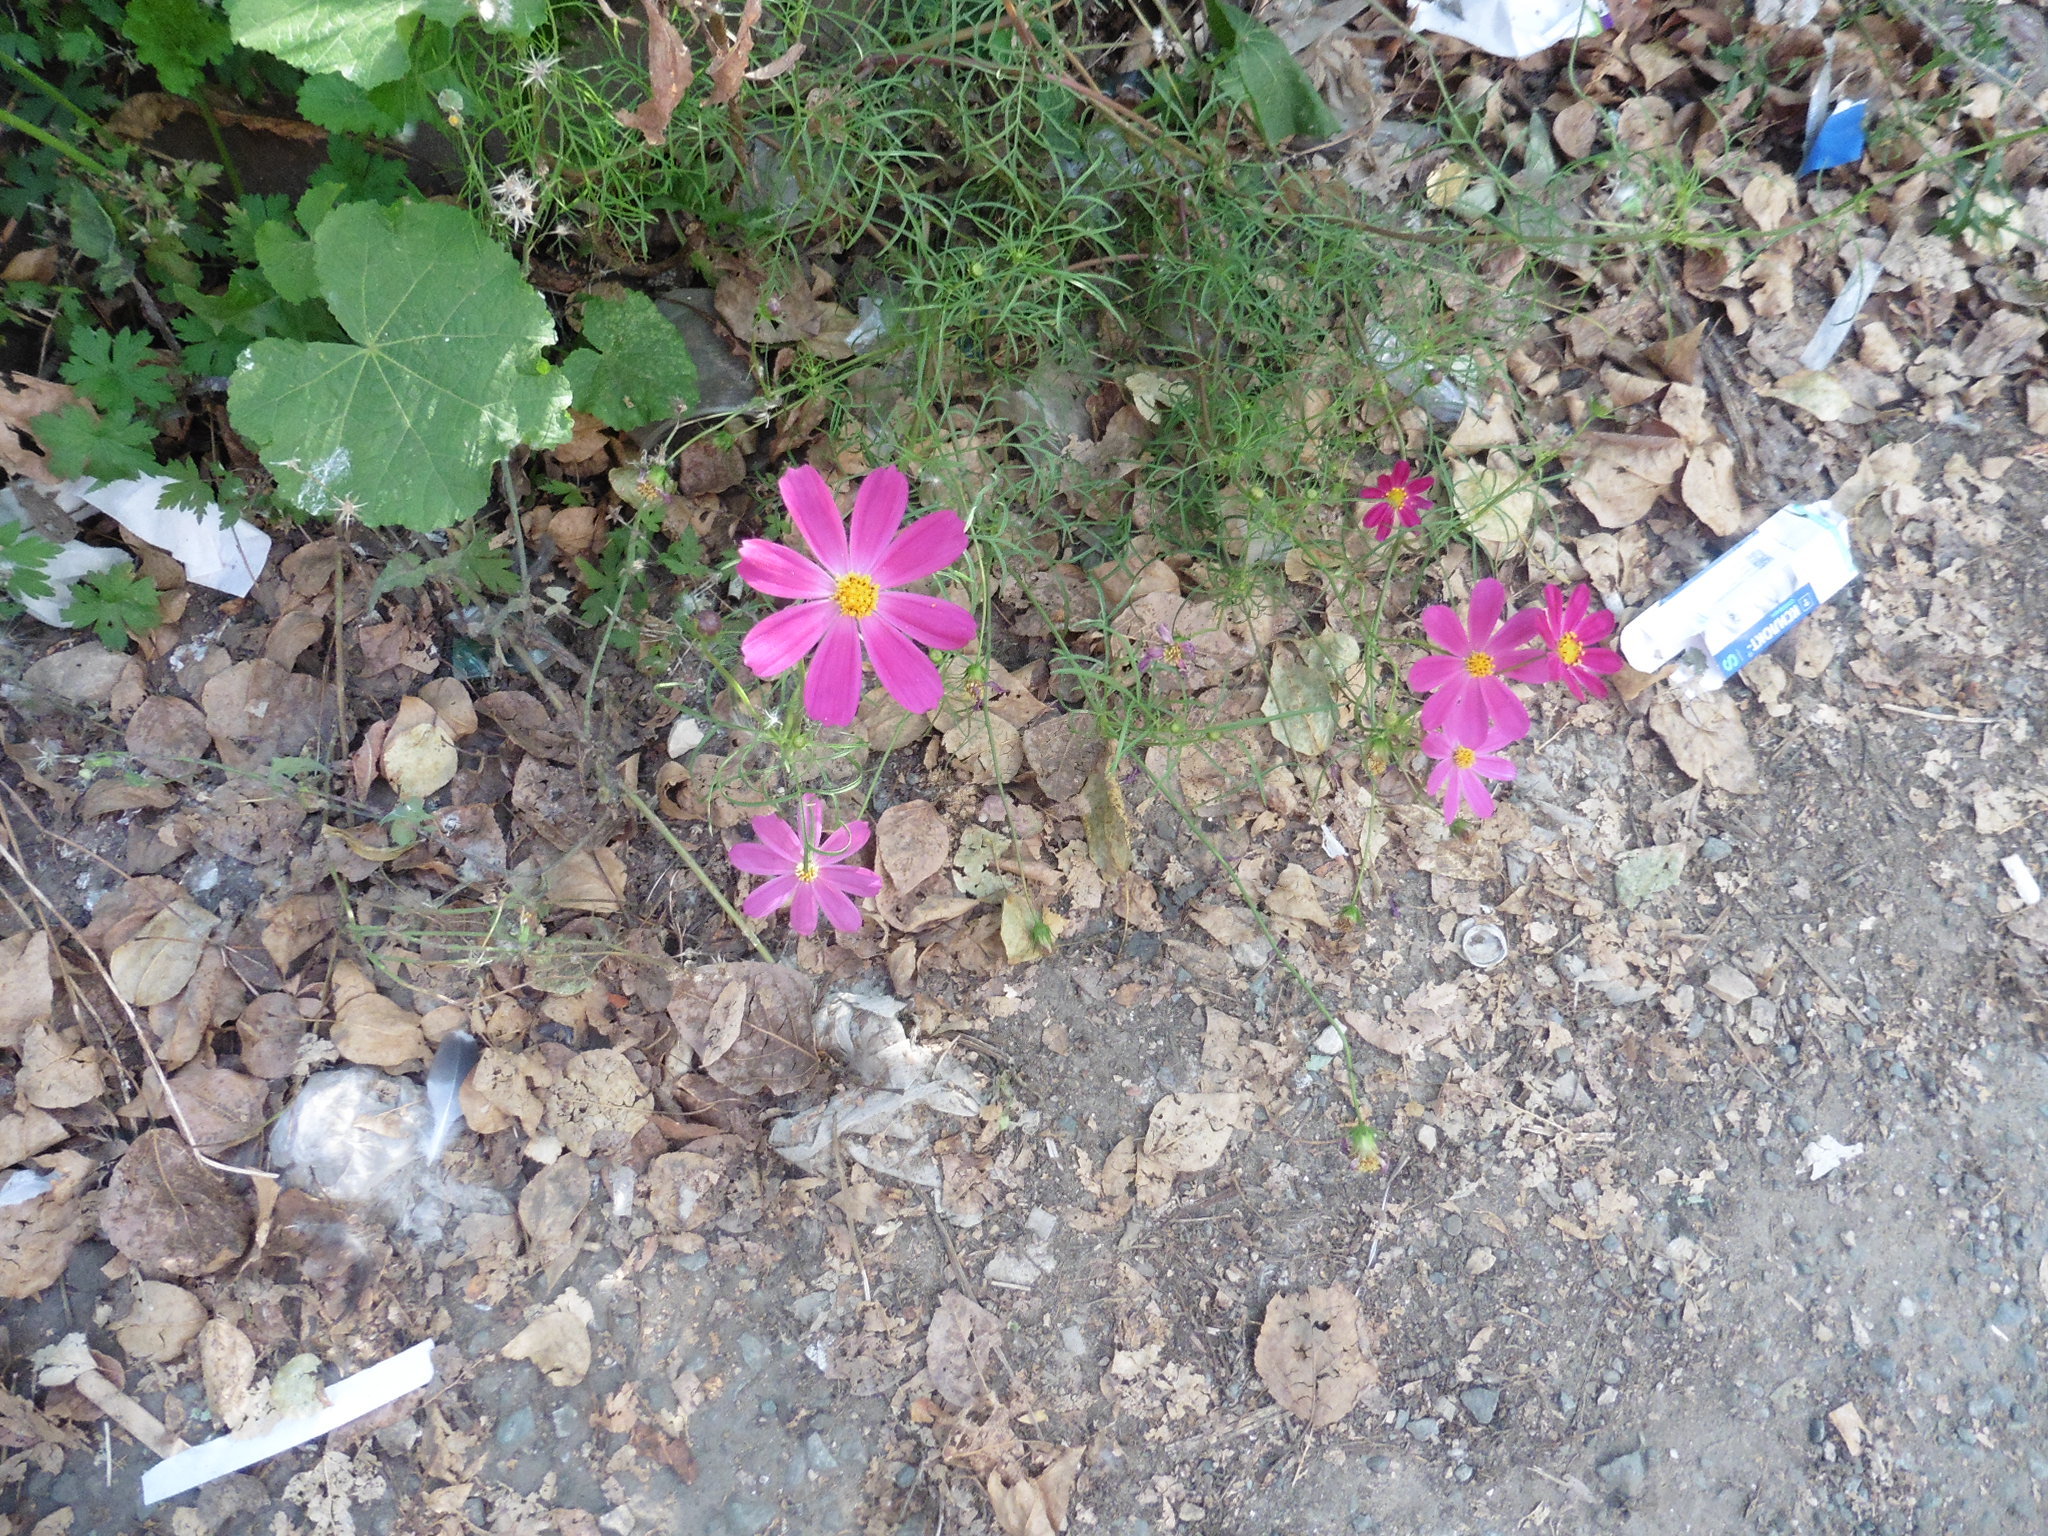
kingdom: Plantae
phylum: Tracheophyta
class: Magnoliopsida
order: Asterales
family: Asteraceae
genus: Cosmos
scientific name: Cosmos bipinnatus
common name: Garden cosmos
